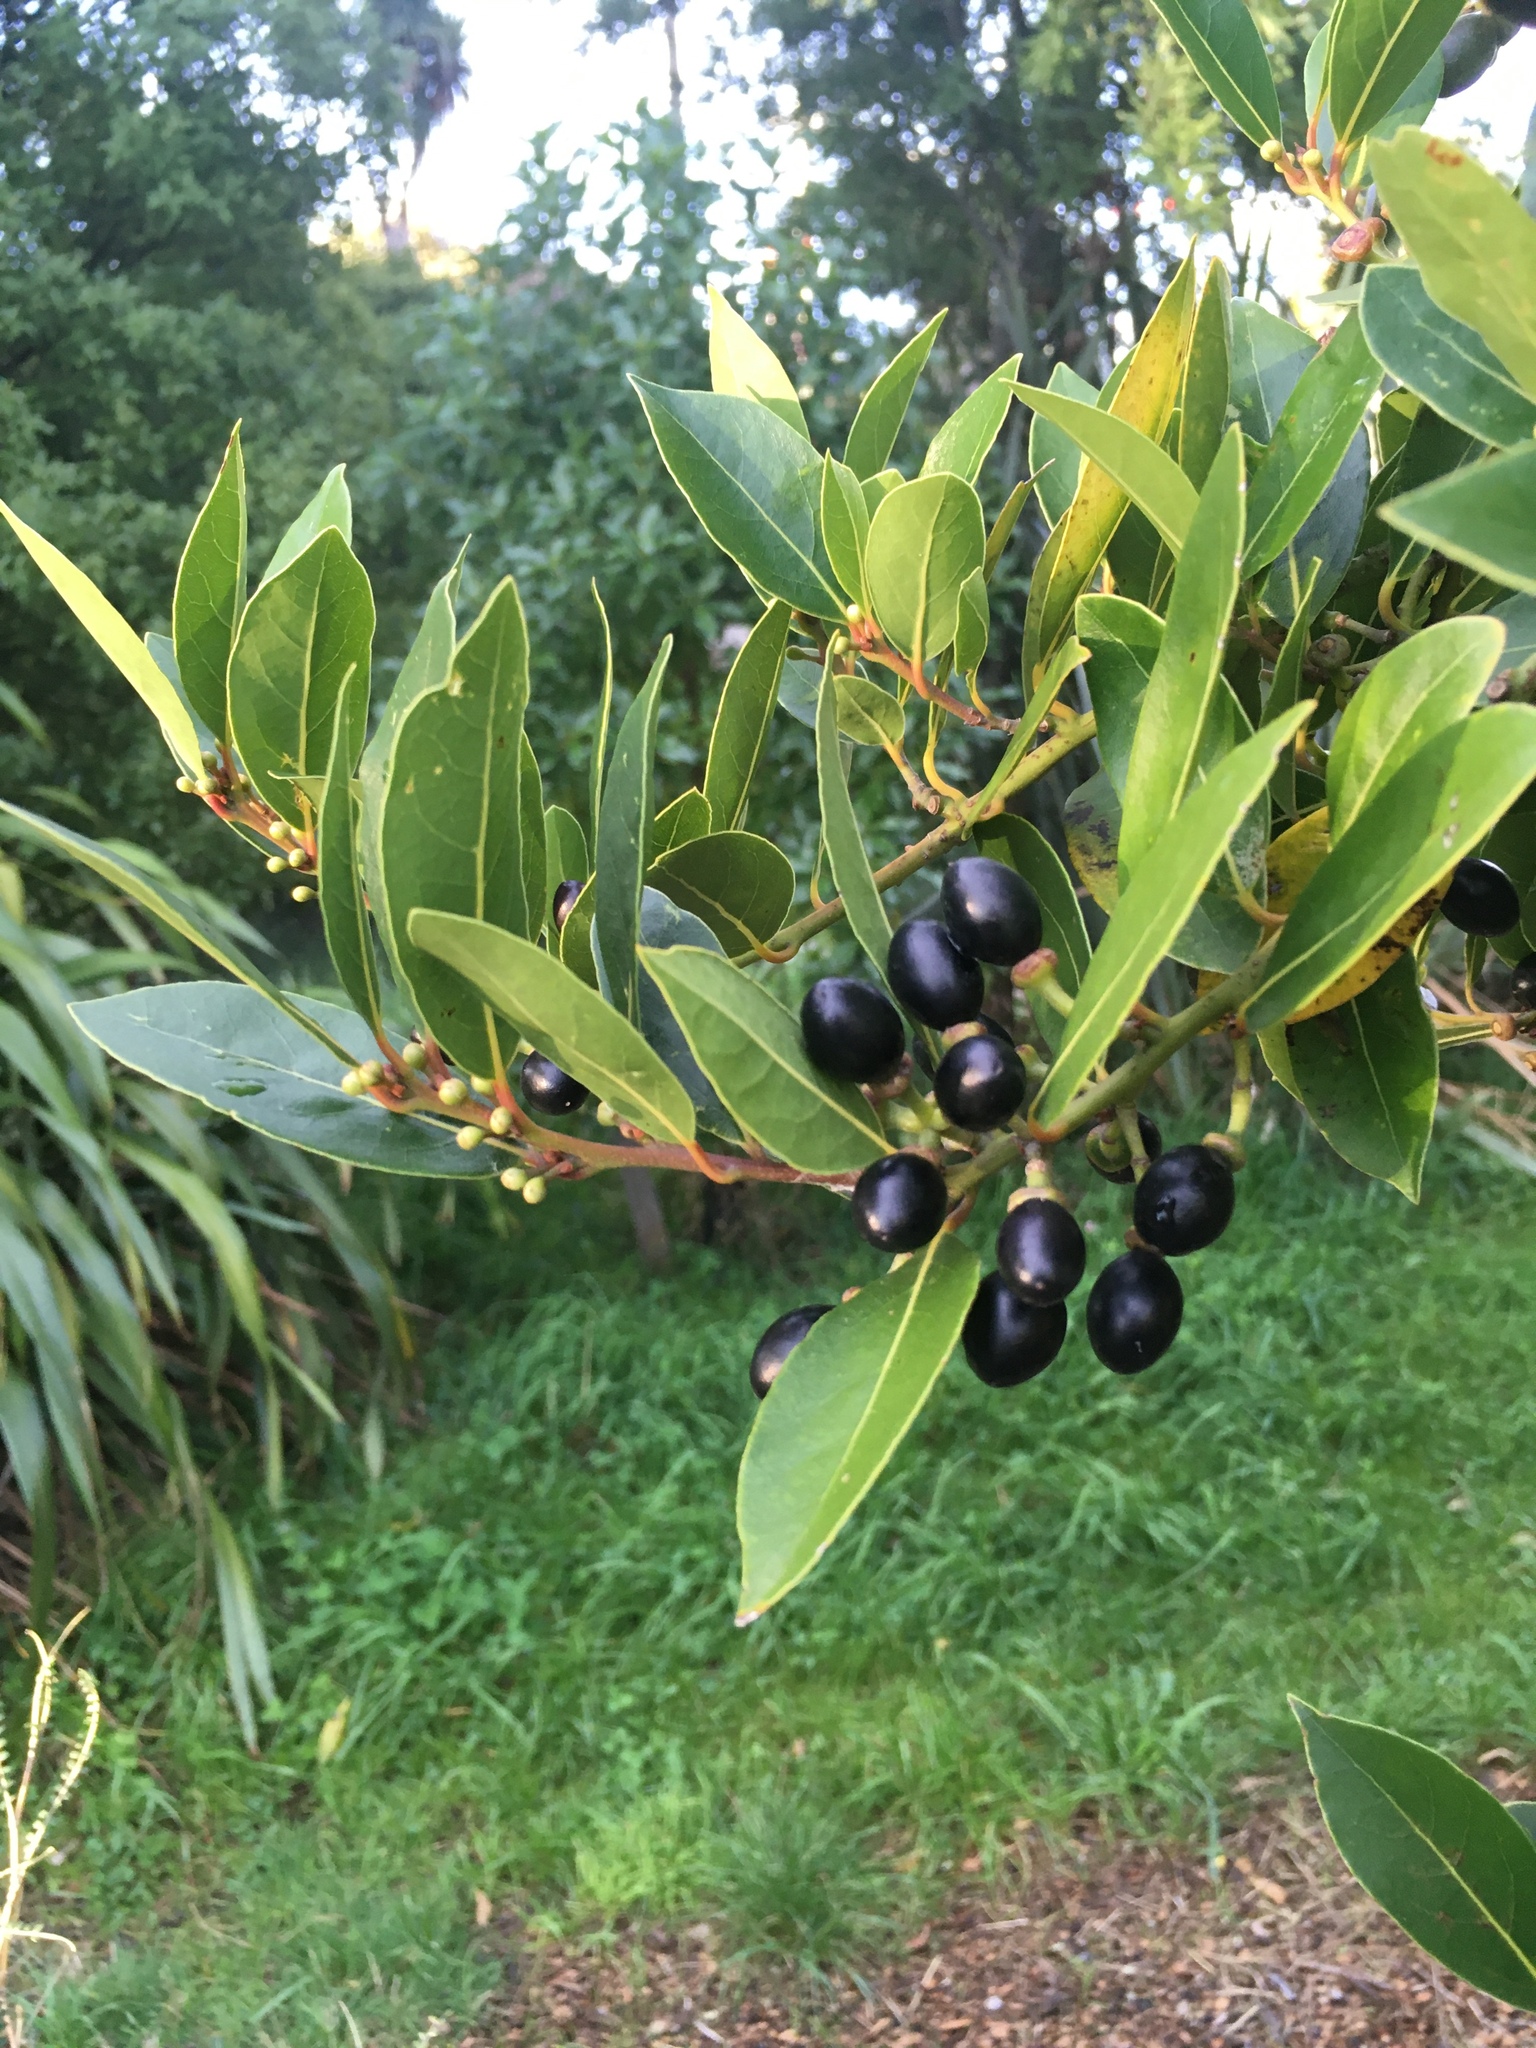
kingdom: Plantae
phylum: Tracheophyta
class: Magnoliopsida
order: Laurales
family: Lauraceae
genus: Laurus
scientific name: Laurus nobilis
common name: Bay
